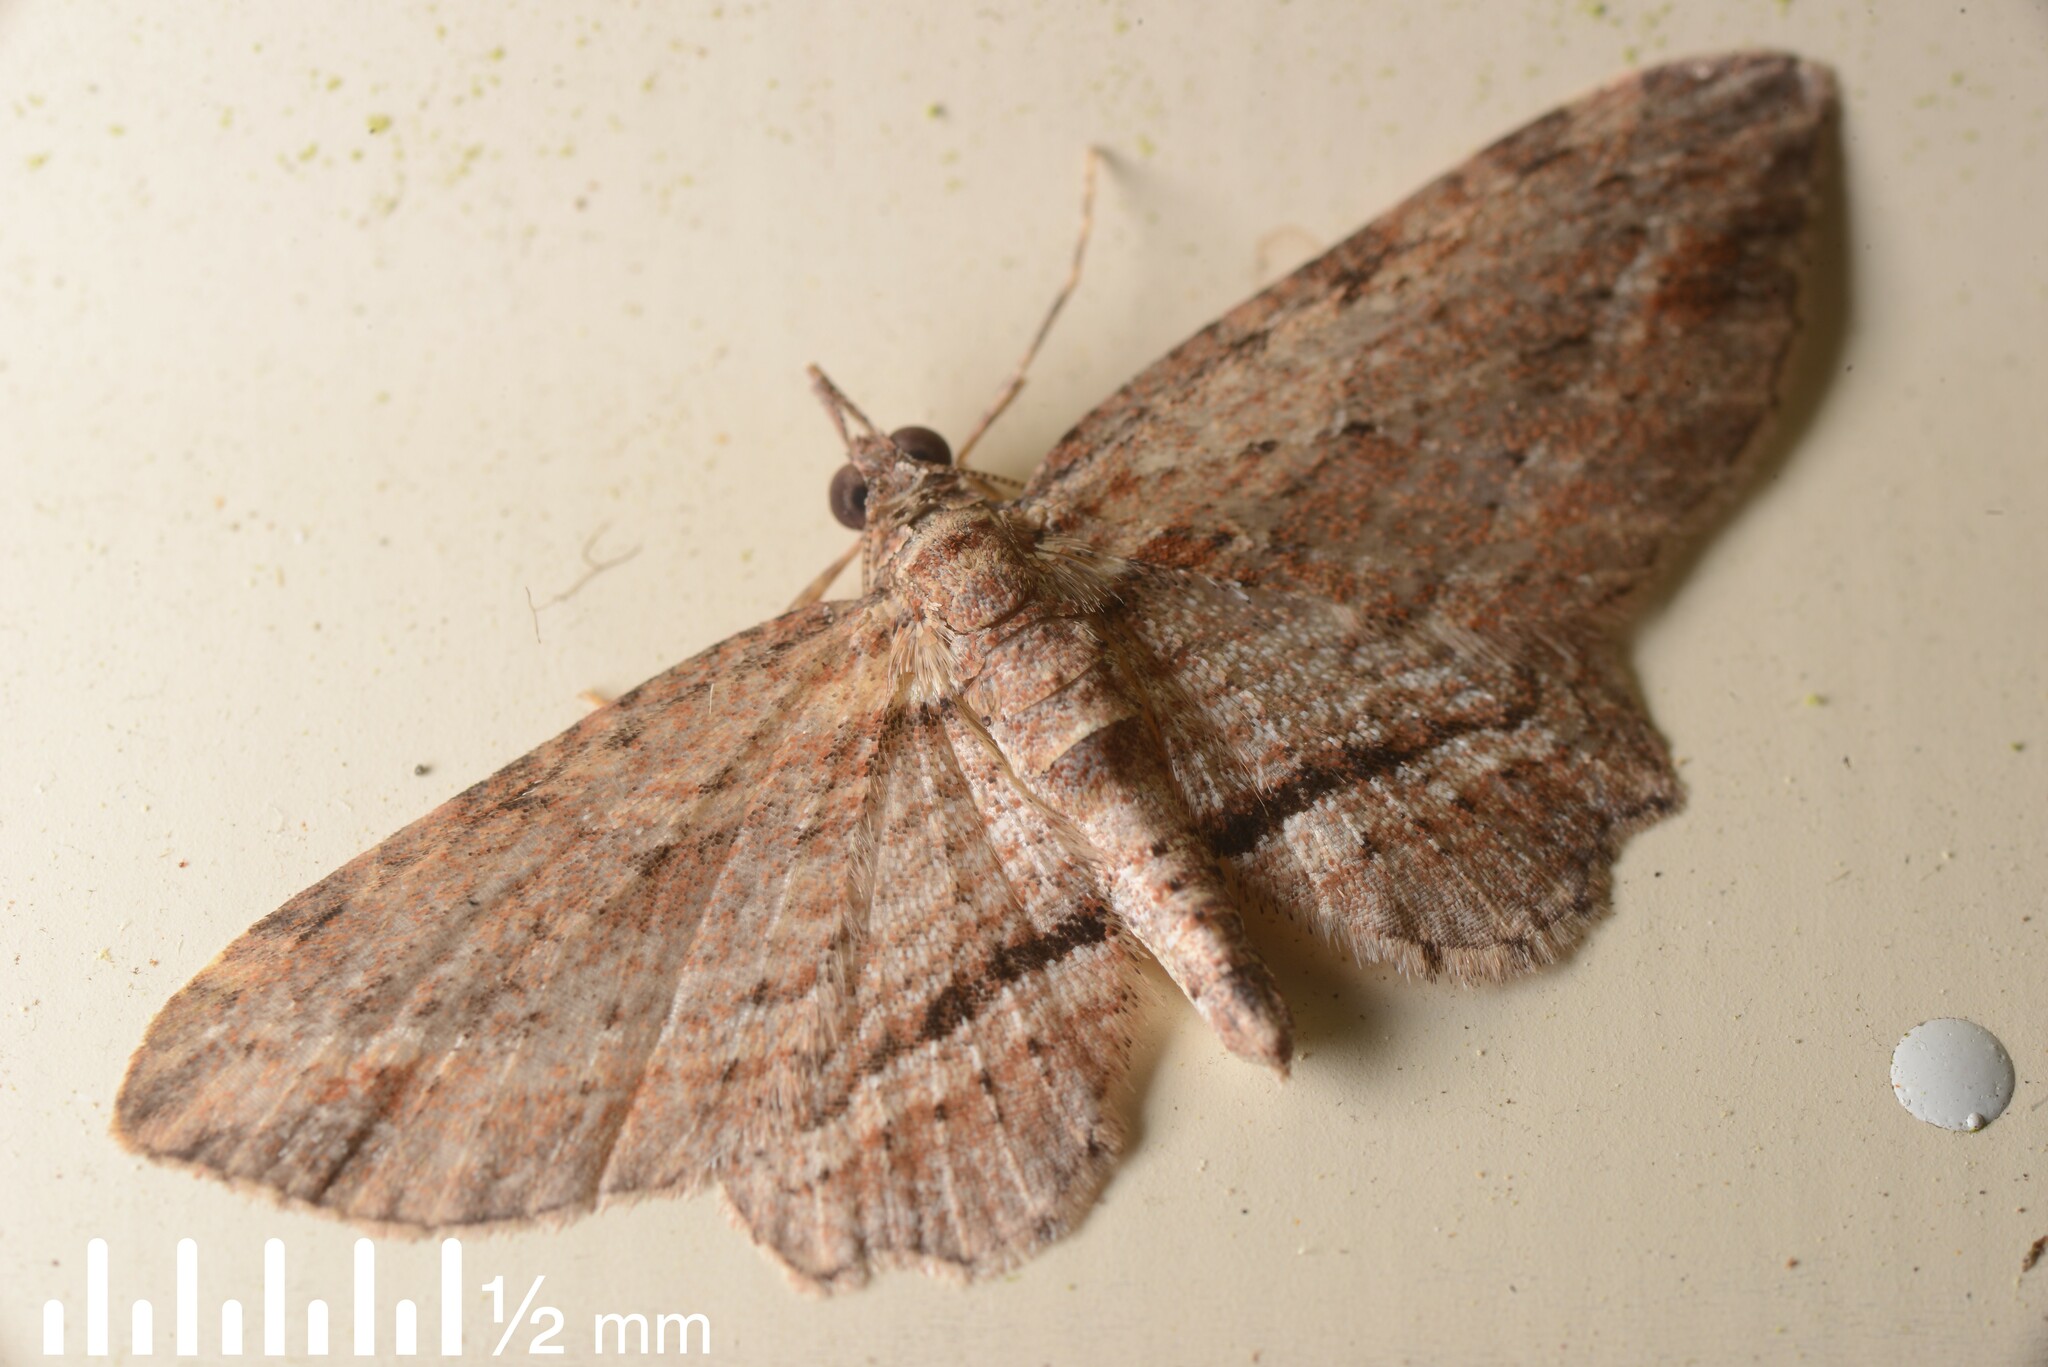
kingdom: Animalia
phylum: Arthropoda
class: Insecta
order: Lepidoptera
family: Geometridae
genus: Chloroclystis
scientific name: Chloroclystis filata
